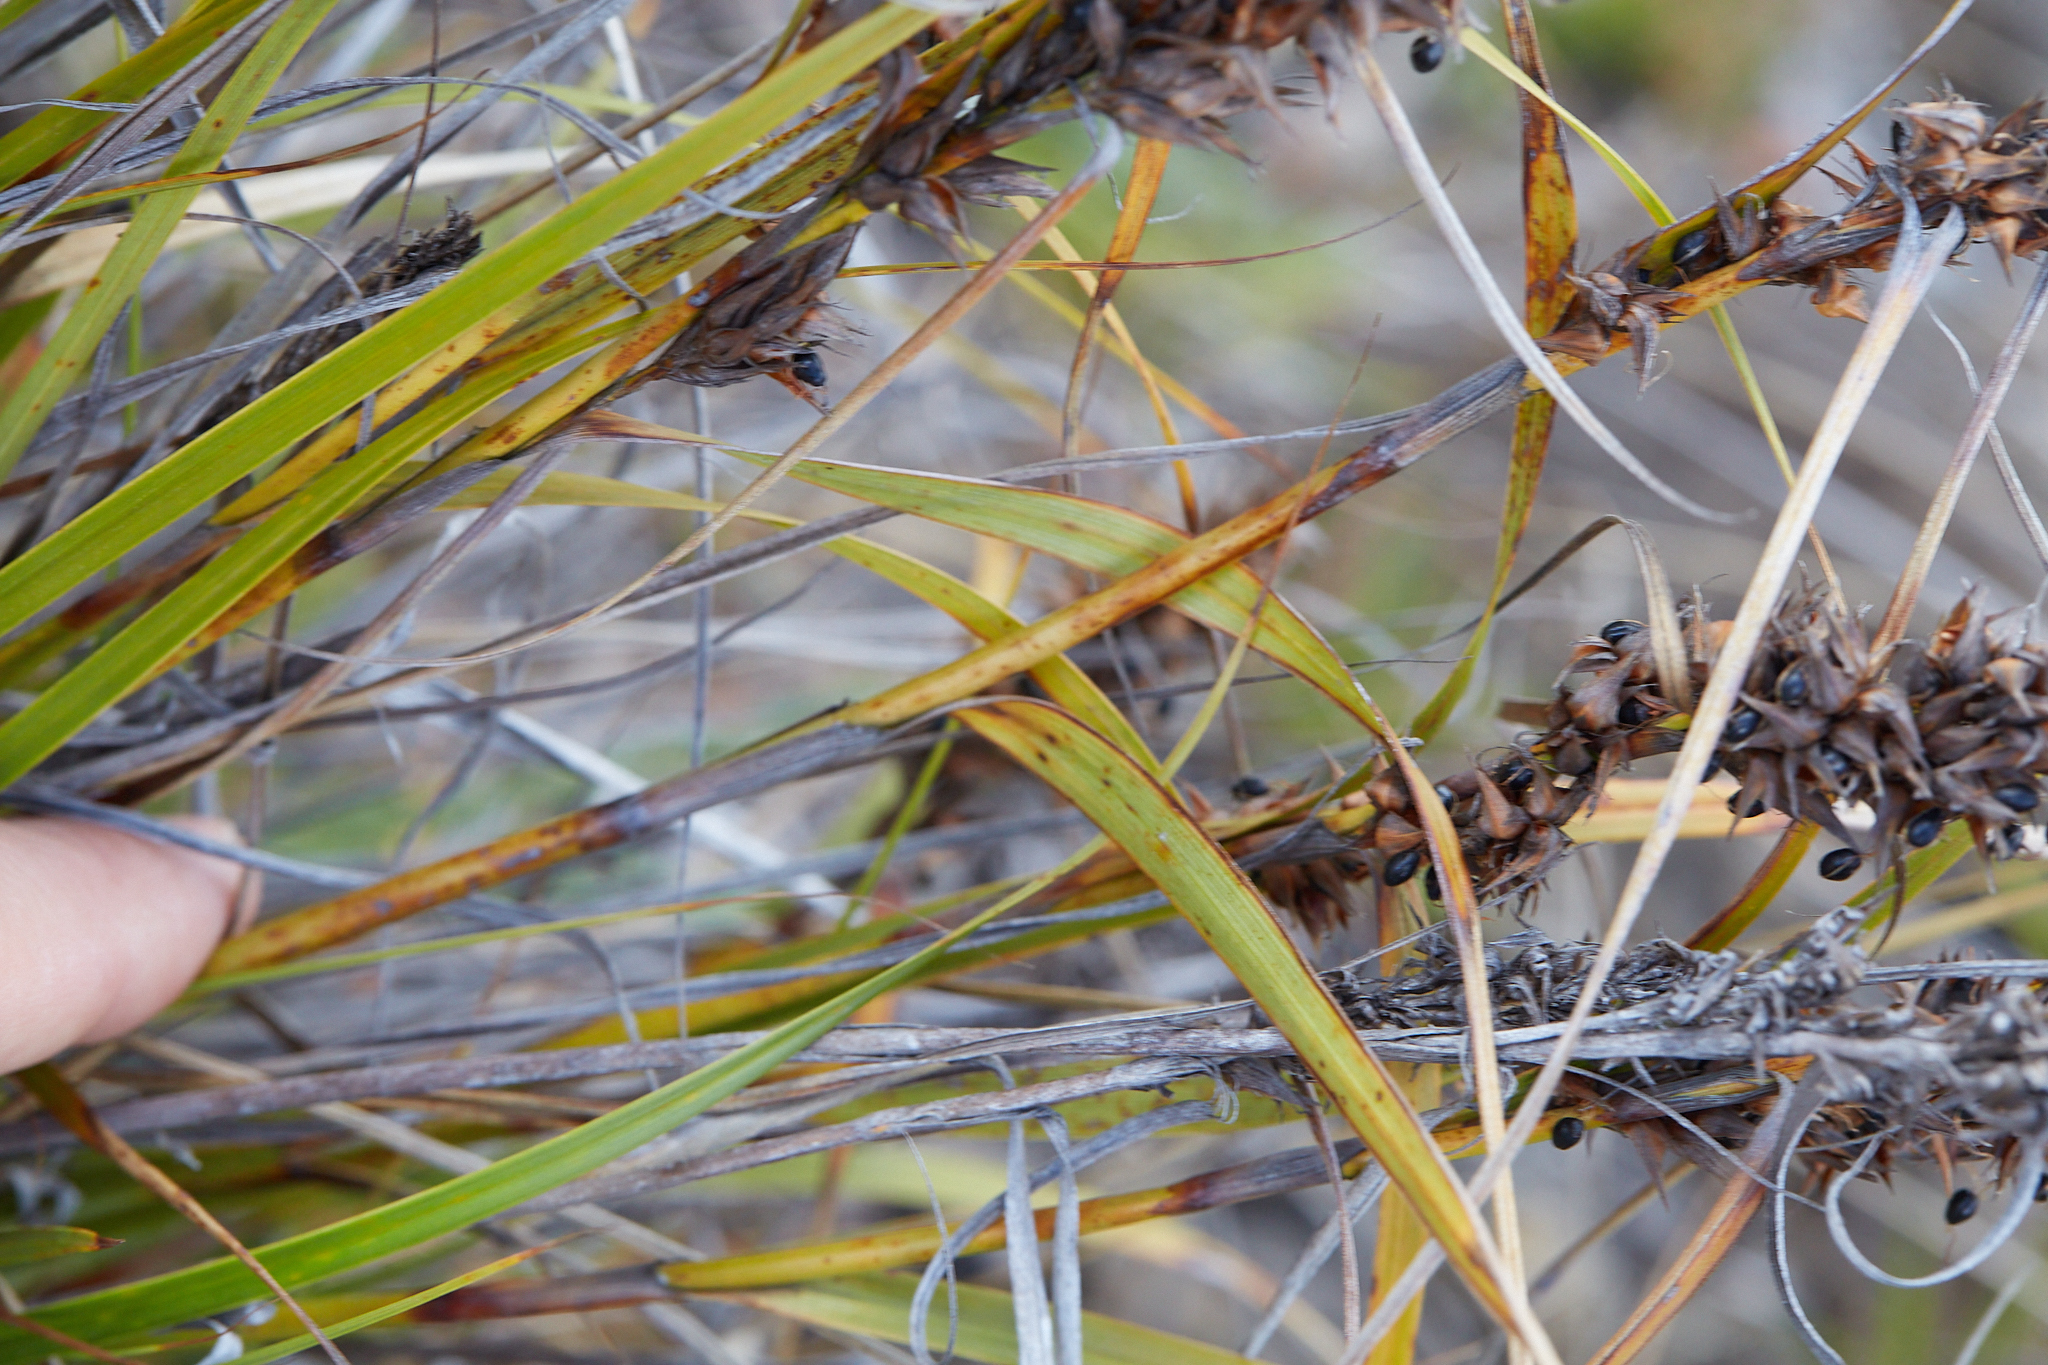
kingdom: Plantae
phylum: Tracheophyta
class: Liliopsida
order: Poales
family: Cyperaceae
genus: Morelotia
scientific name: Morelotia gahniiformis
